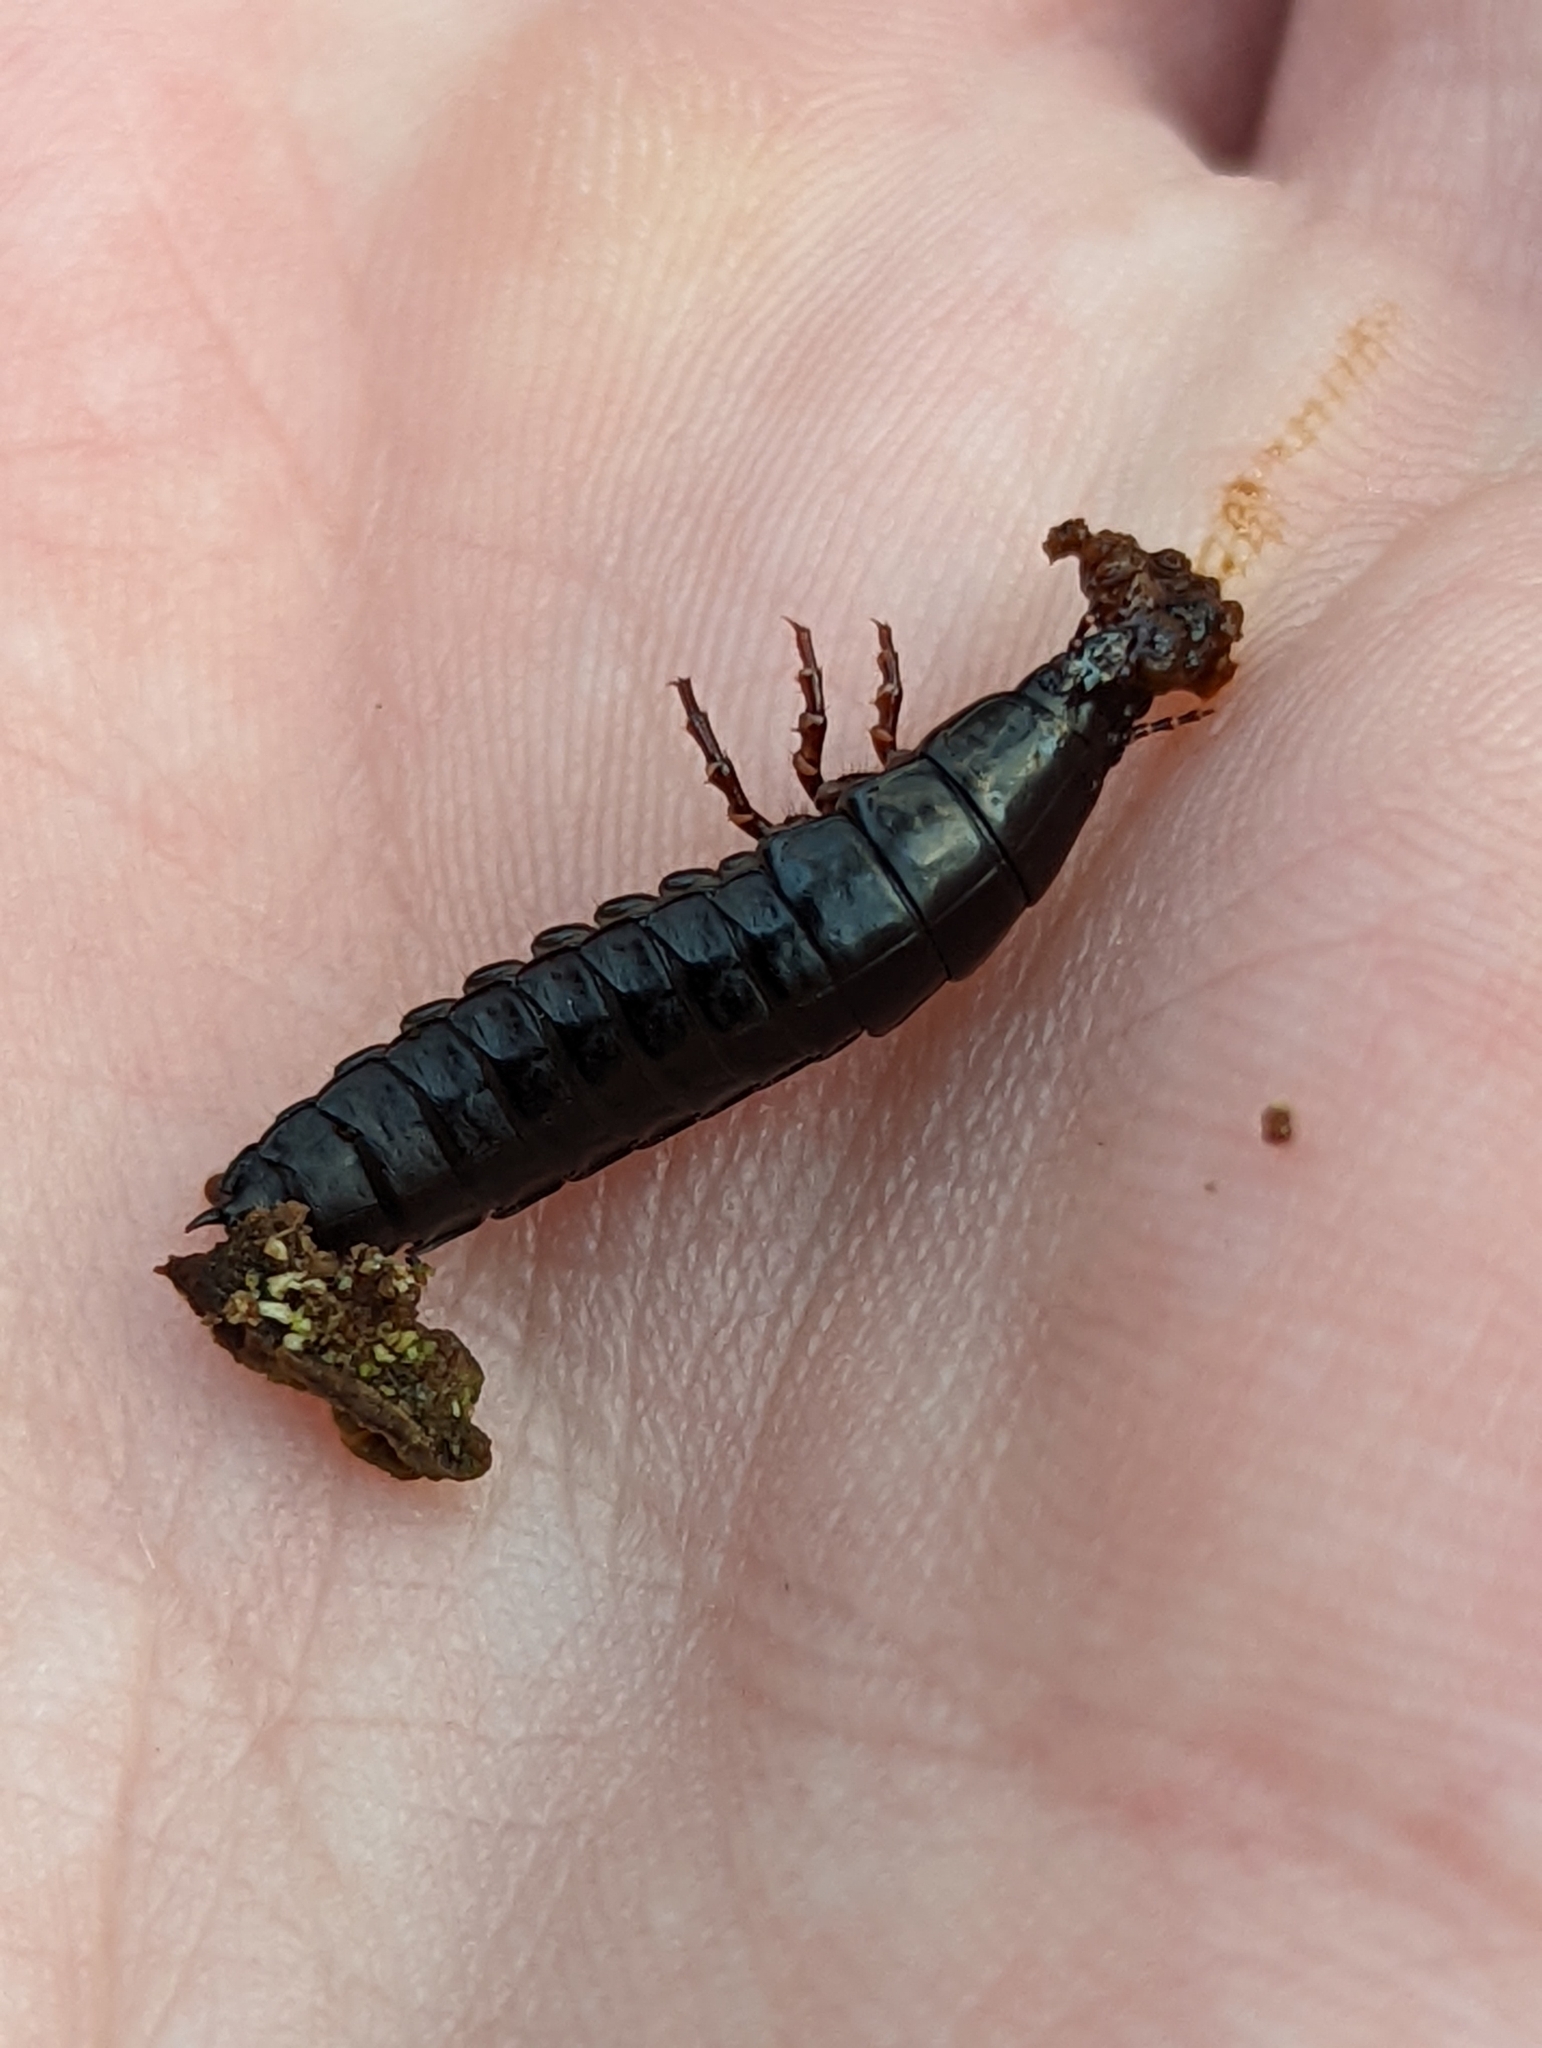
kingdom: Animalia
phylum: Arthropoda
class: Insecta
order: Coleoptera
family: Carabidae
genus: Carabus
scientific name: Carabus
